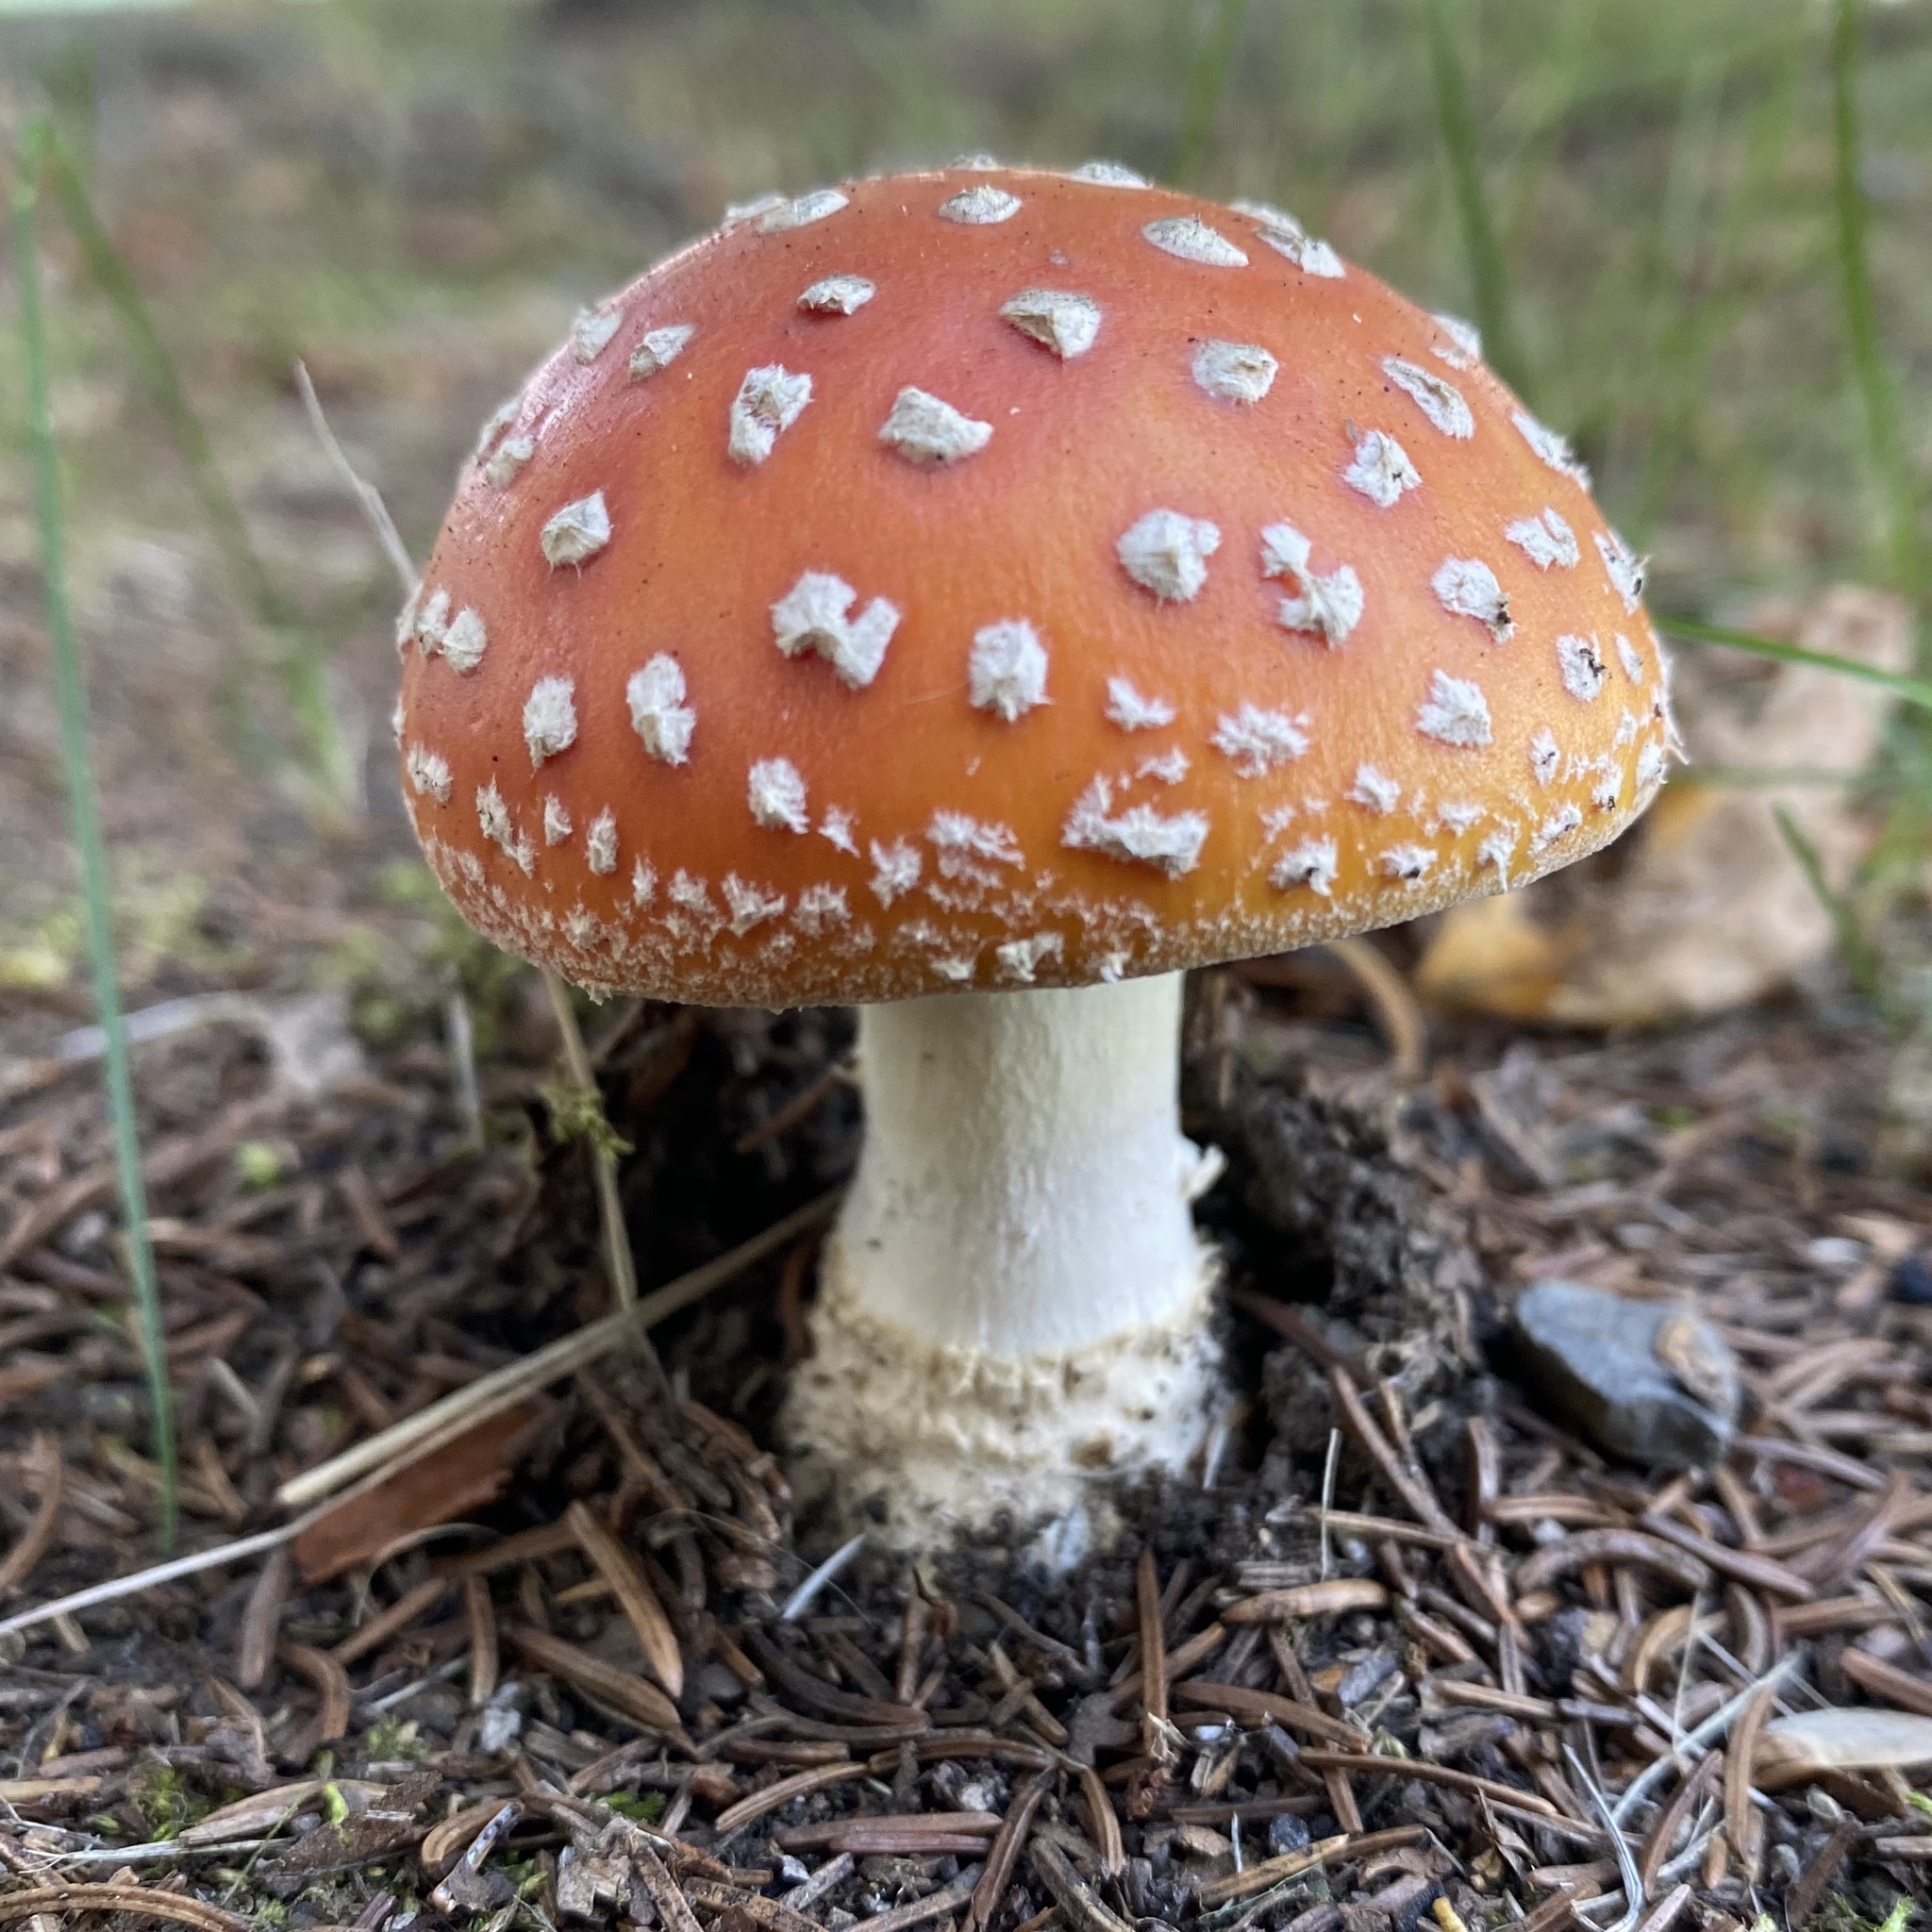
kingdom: Fungi
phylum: Basidiomycota
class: Agaricomycetes
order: Agaricales
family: Amanitaceae
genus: Amanita
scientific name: Amanita muscaria
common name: Fly agaric
